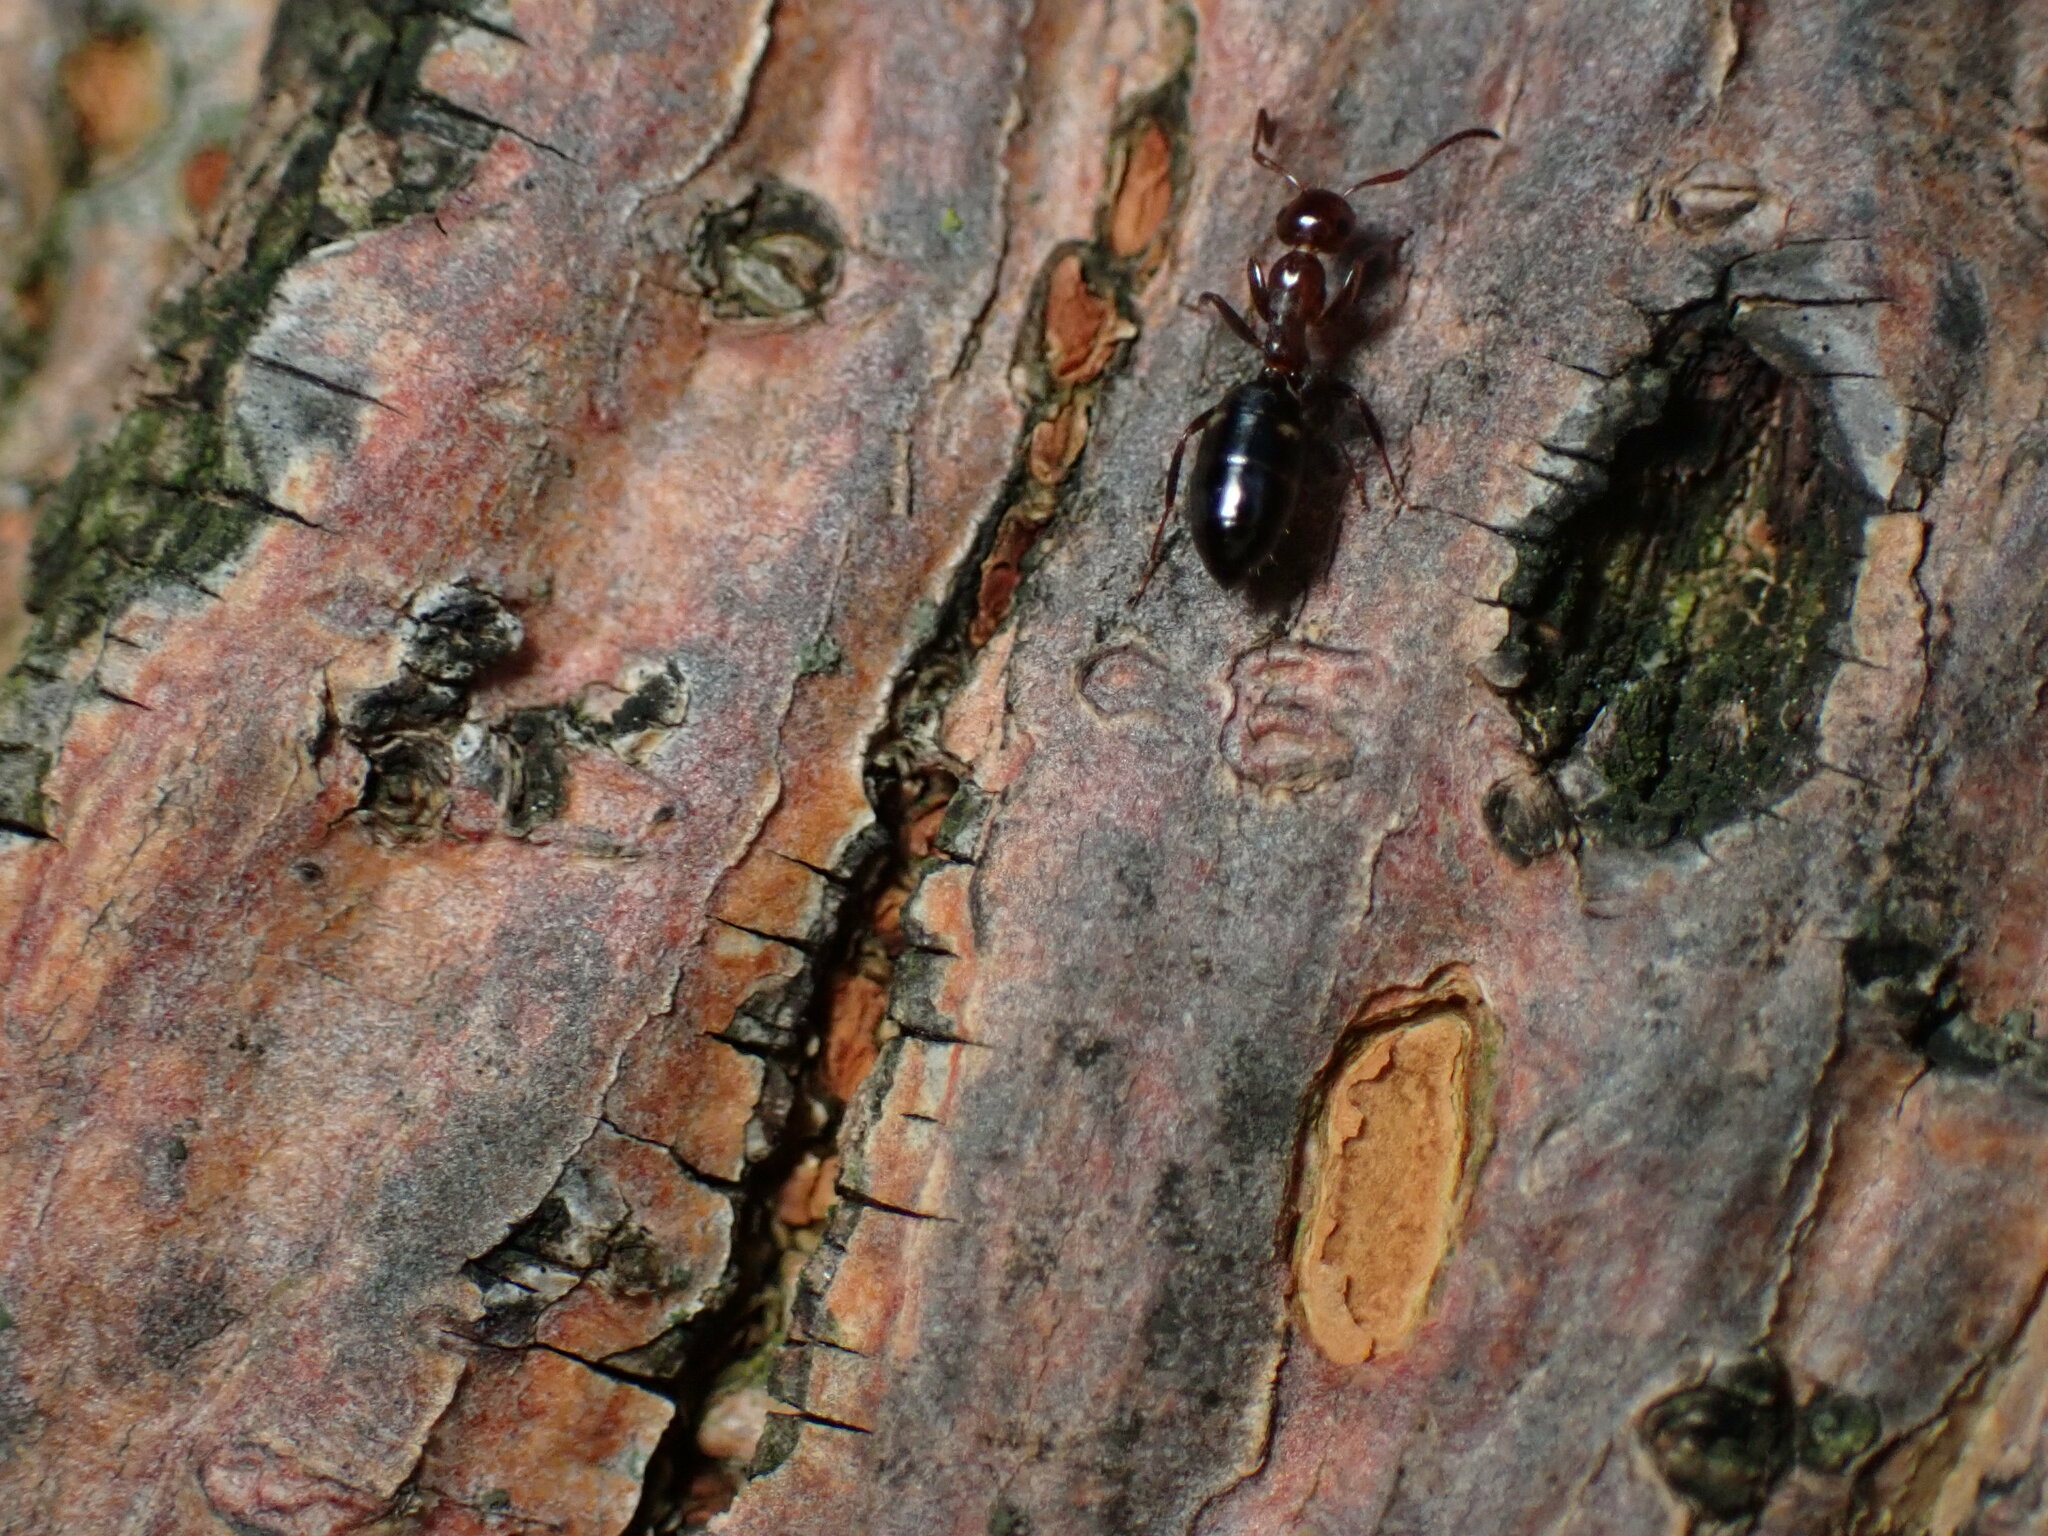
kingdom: Animalia
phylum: Arthropoda
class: Insecta
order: Hymenoptera
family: Formicidae
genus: Camponotus
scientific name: Camponotus truncatus
